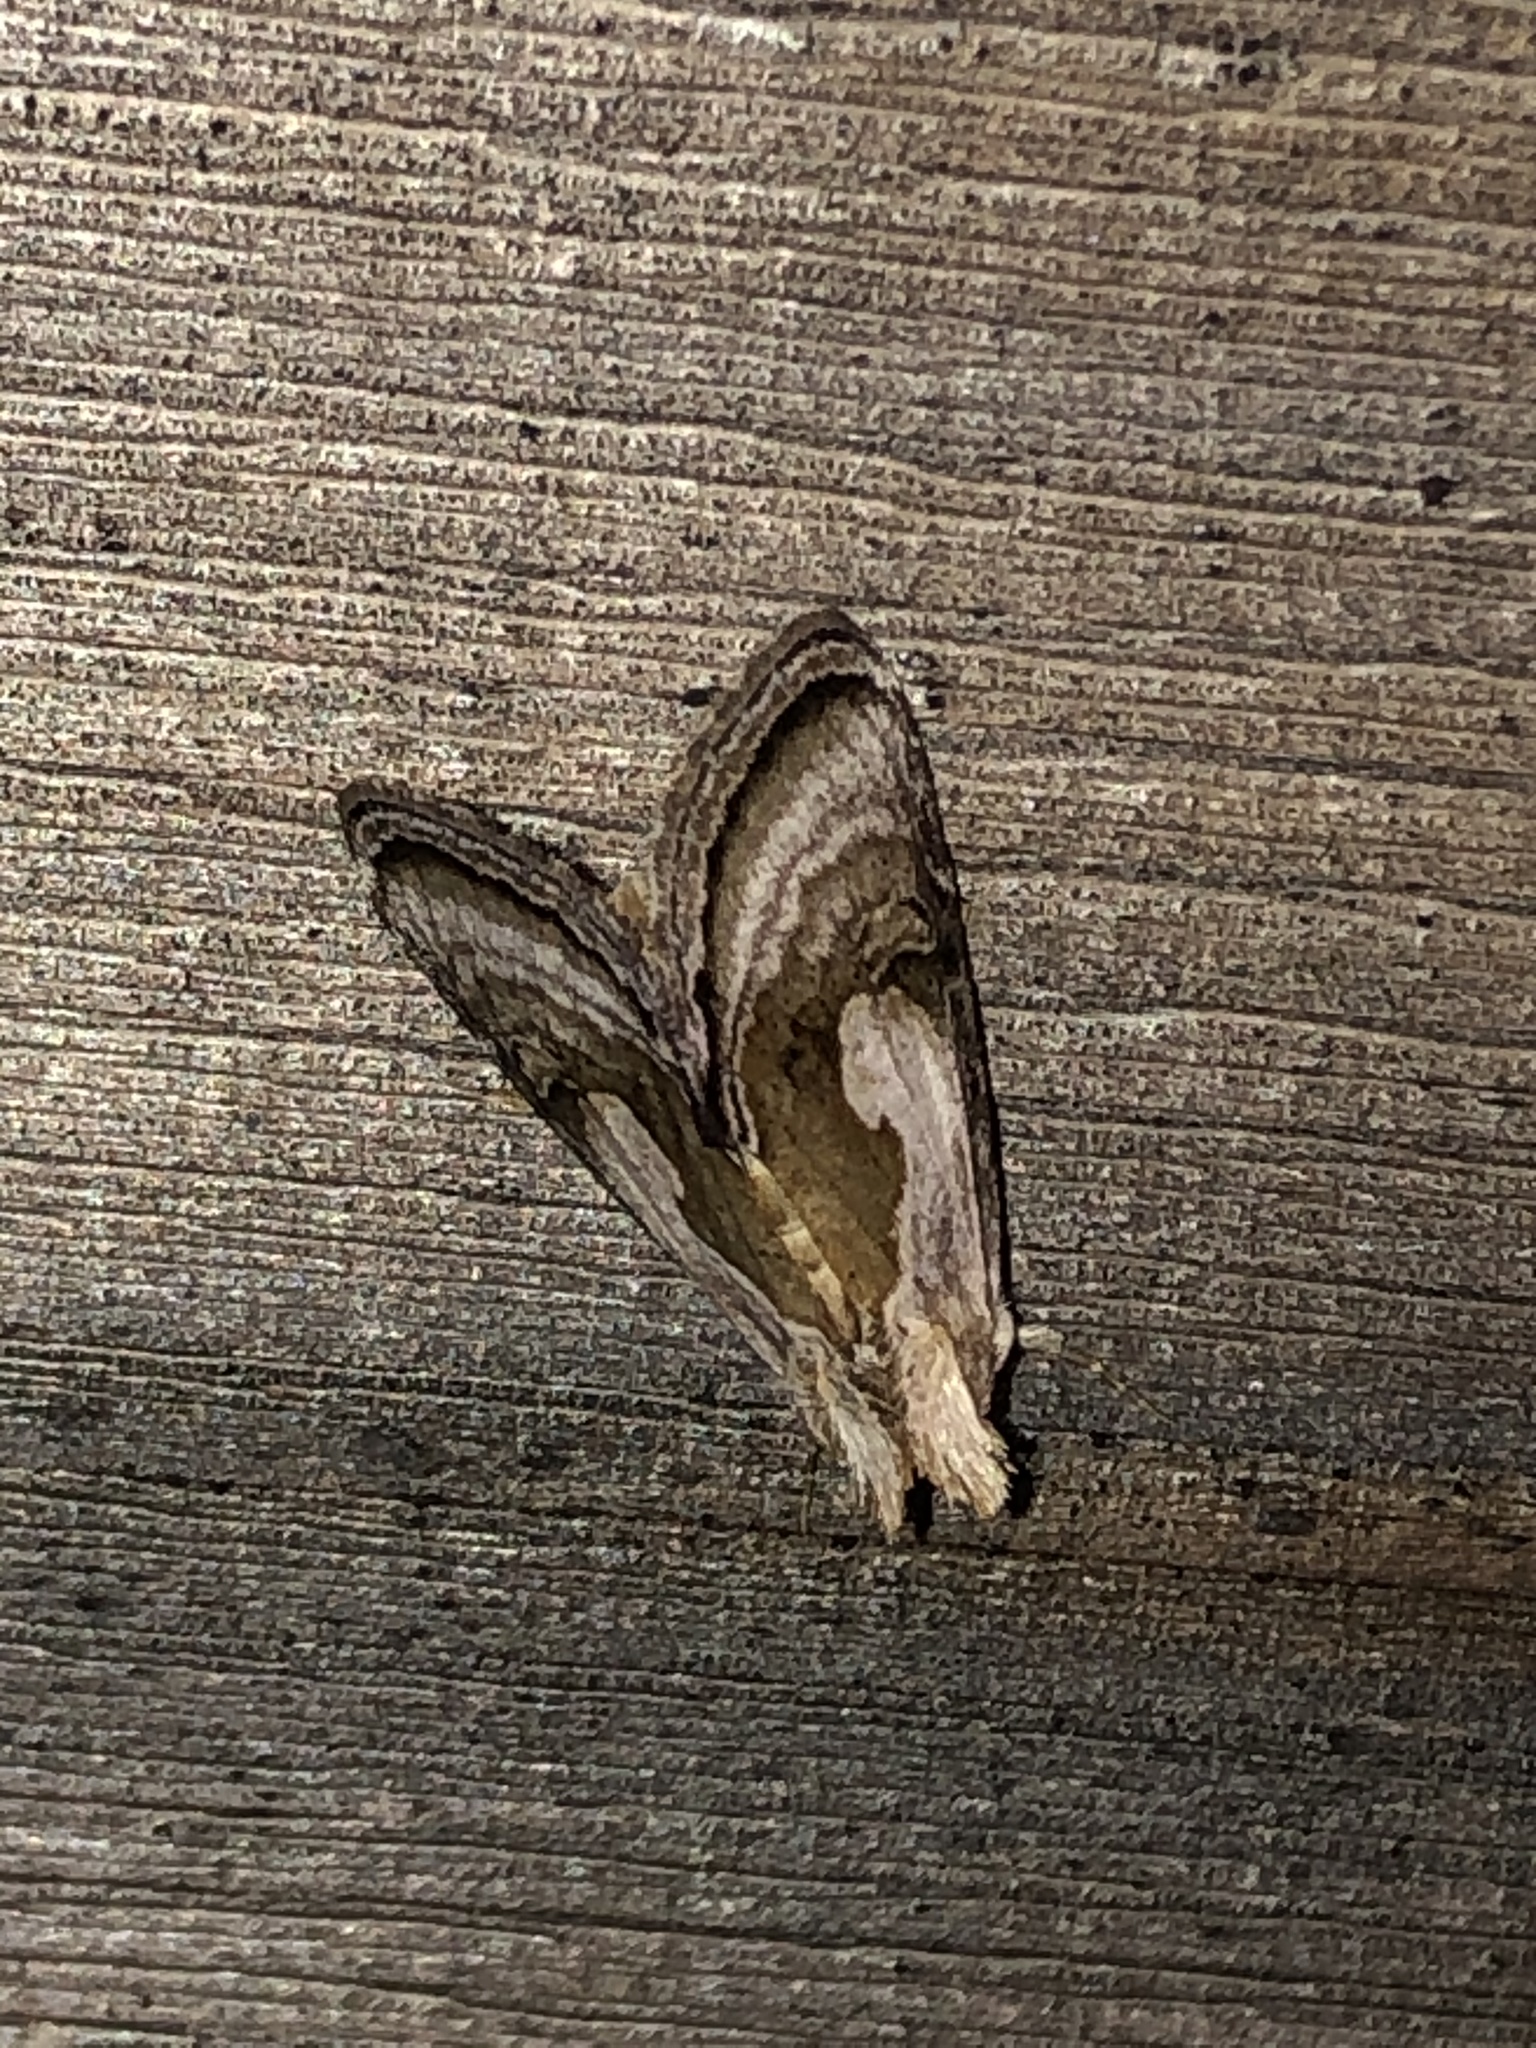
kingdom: Animalia
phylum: Arthropoda
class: Insecta
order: Lepidoptera
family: Noctuidae
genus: Chrysanympha
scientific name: Chrysanympha formosa
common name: Formosa looper moth
